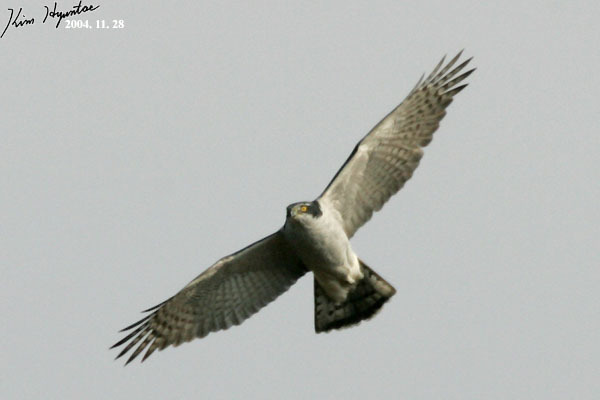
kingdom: Animalia
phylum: Chordata
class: Aves
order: Accipitriformes
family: Accipitridae
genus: Accipiter
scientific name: Accipiter gentilis
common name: Northern goshawk
